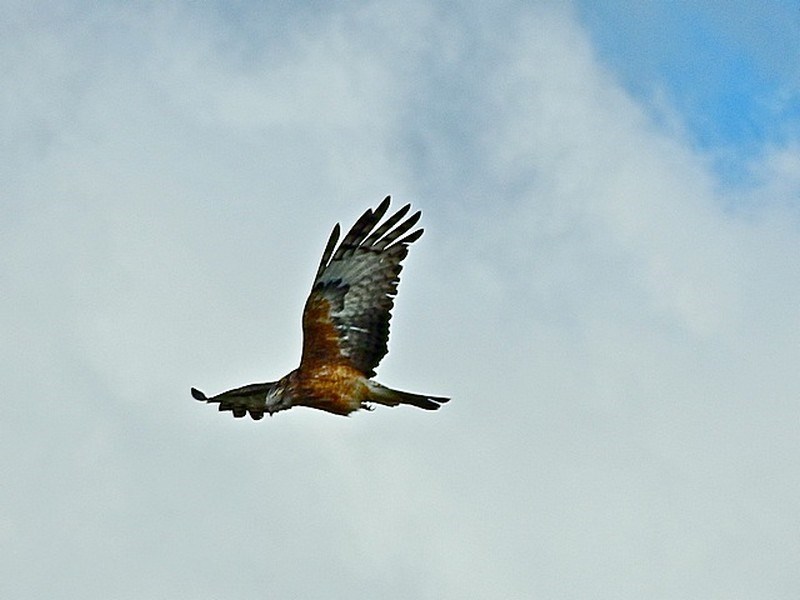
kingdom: Animalia
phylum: Chordata
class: Aves
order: Accipitriformes
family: Accipitridae
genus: Lophoictinia
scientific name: Lophoictinia isura
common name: Square-tailed kite
